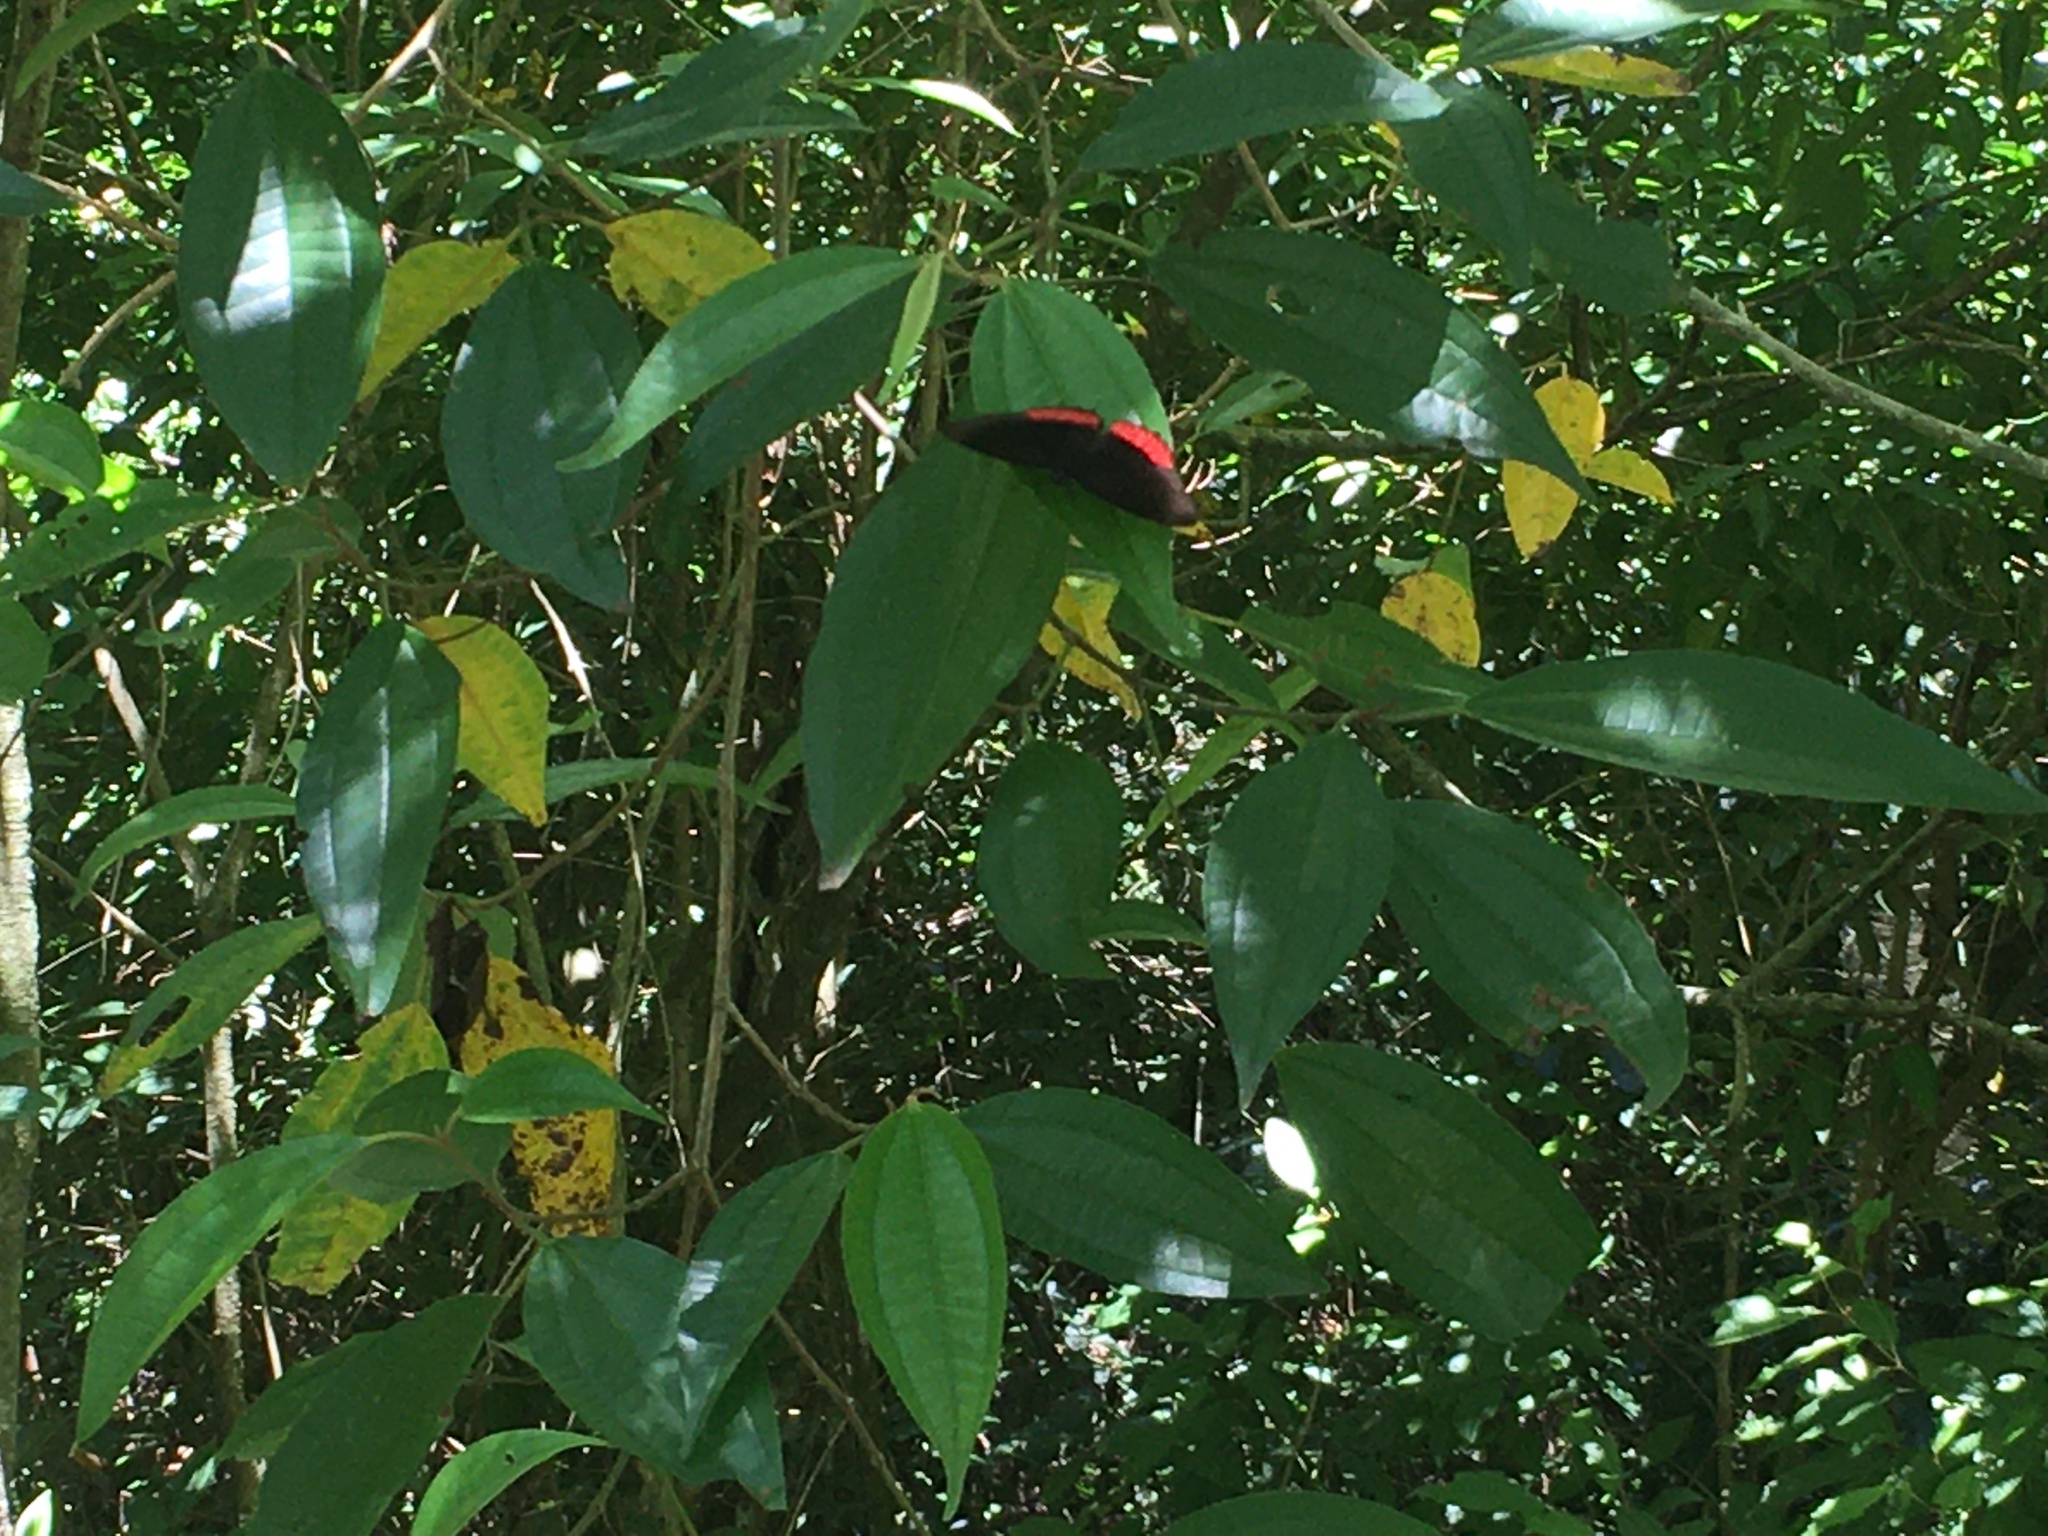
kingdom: Animalia
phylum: Arthropoda
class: Insecta
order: Lepidoptera
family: Sesiidae
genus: Sesia
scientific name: Sesia Biblis hyperia
